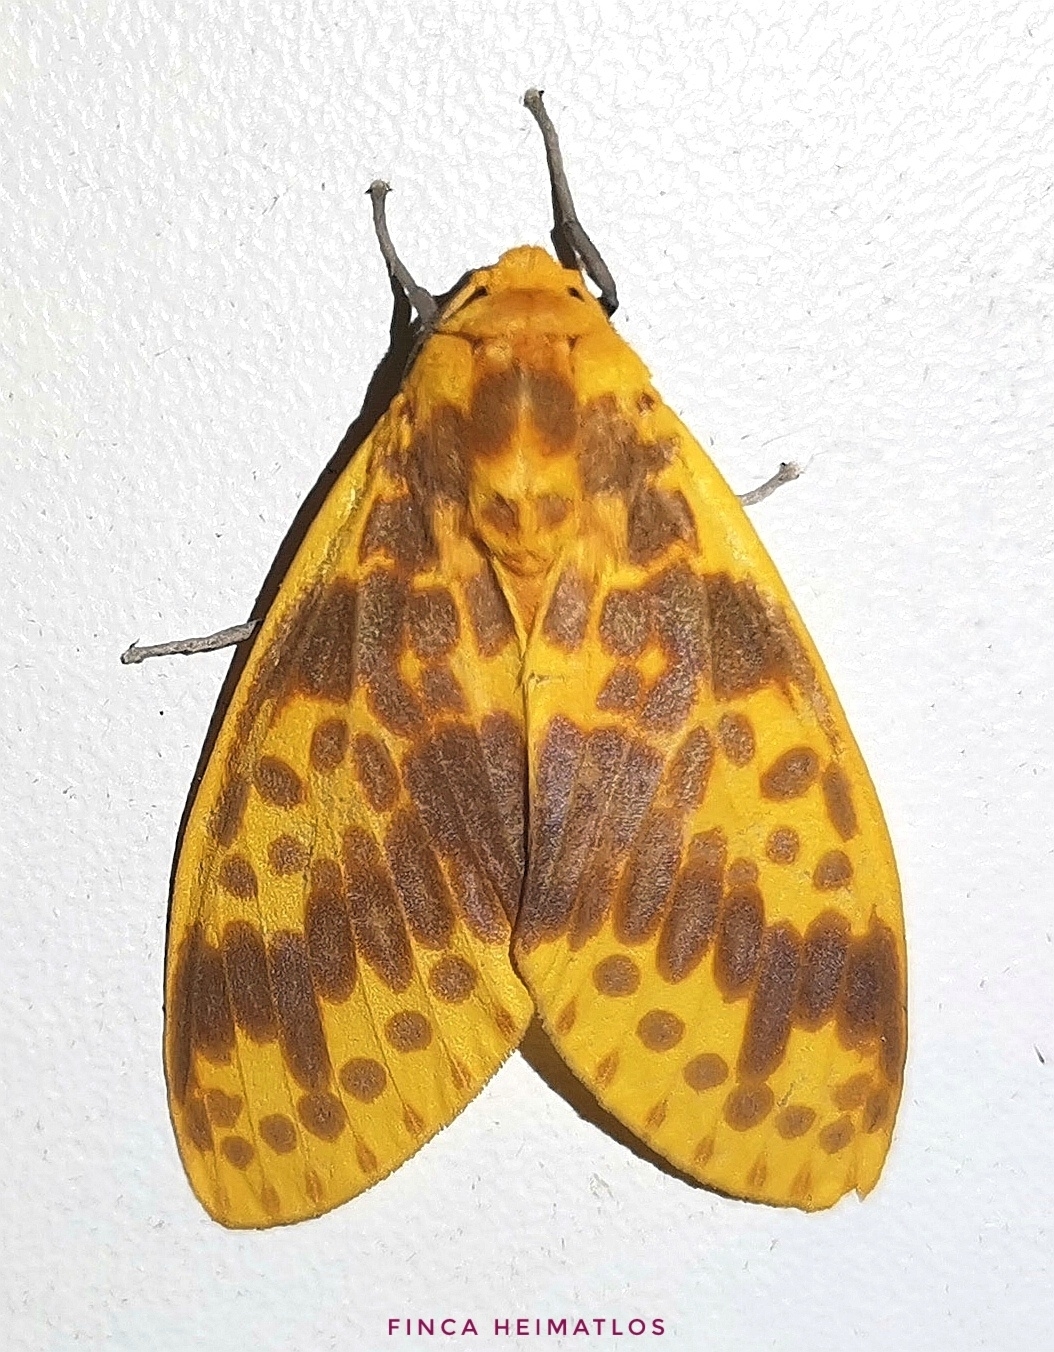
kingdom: Animalia
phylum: Arthropoda
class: Insecta
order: Lepidoptera
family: Erebidae
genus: Symphlebia
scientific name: Symphlebia neja
